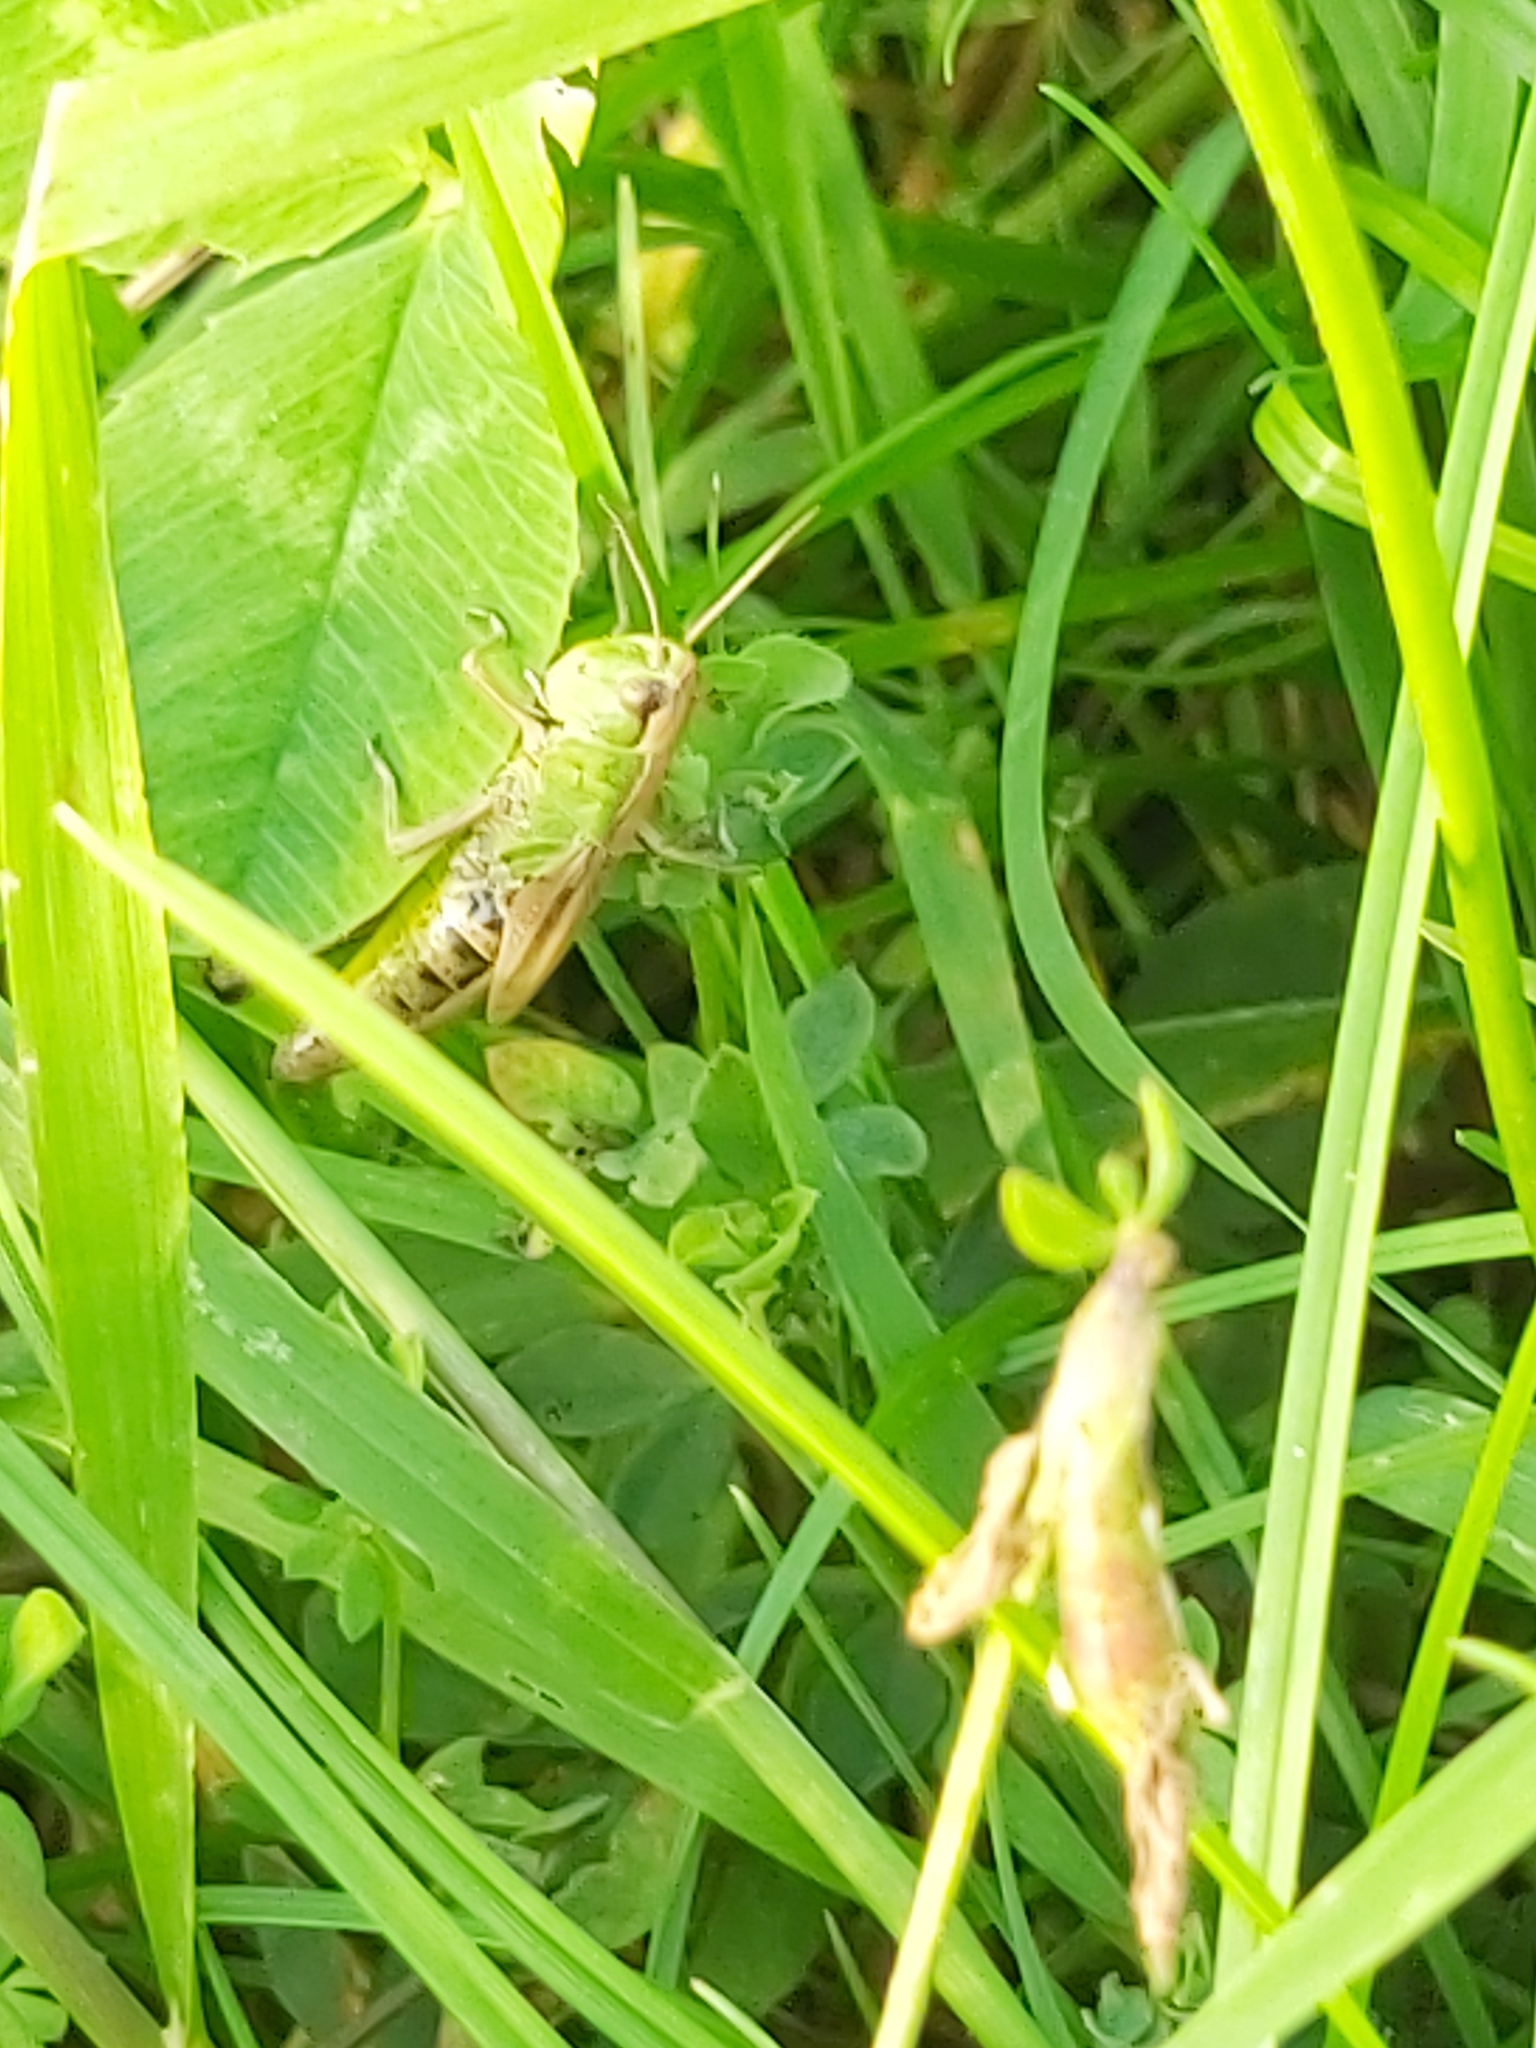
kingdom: Animalia
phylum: Arthropoda
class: Insecta
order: Orthoptera
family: Acrididae
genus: Pseudochorthippus
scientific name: Pseudochorthippus parallelus
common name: Meadow grasshopper
